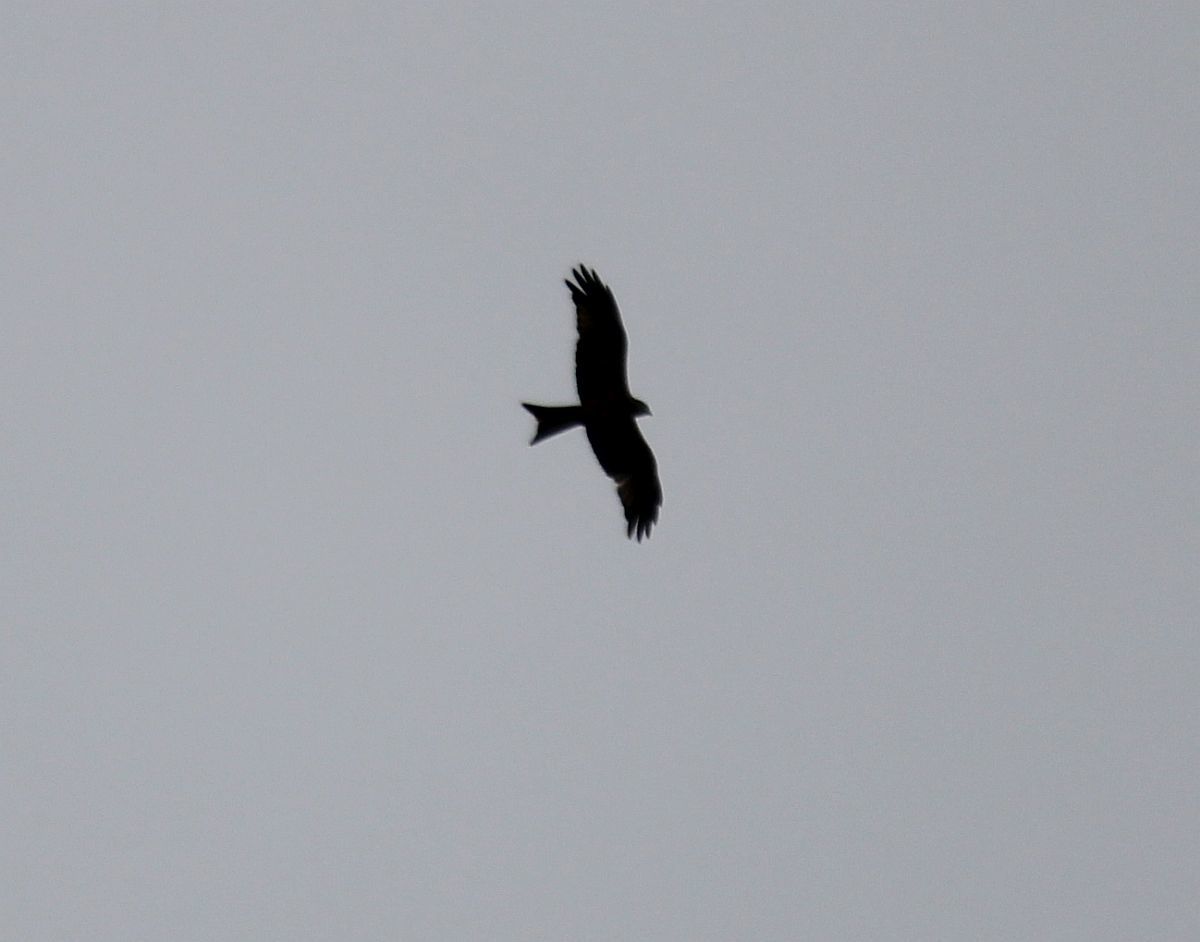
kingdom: Animalia
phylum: Chordata
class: Aves
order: Accipitriformes
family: Accipitridae
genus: Milvus
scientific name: Milvus milvus
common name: Red kite
